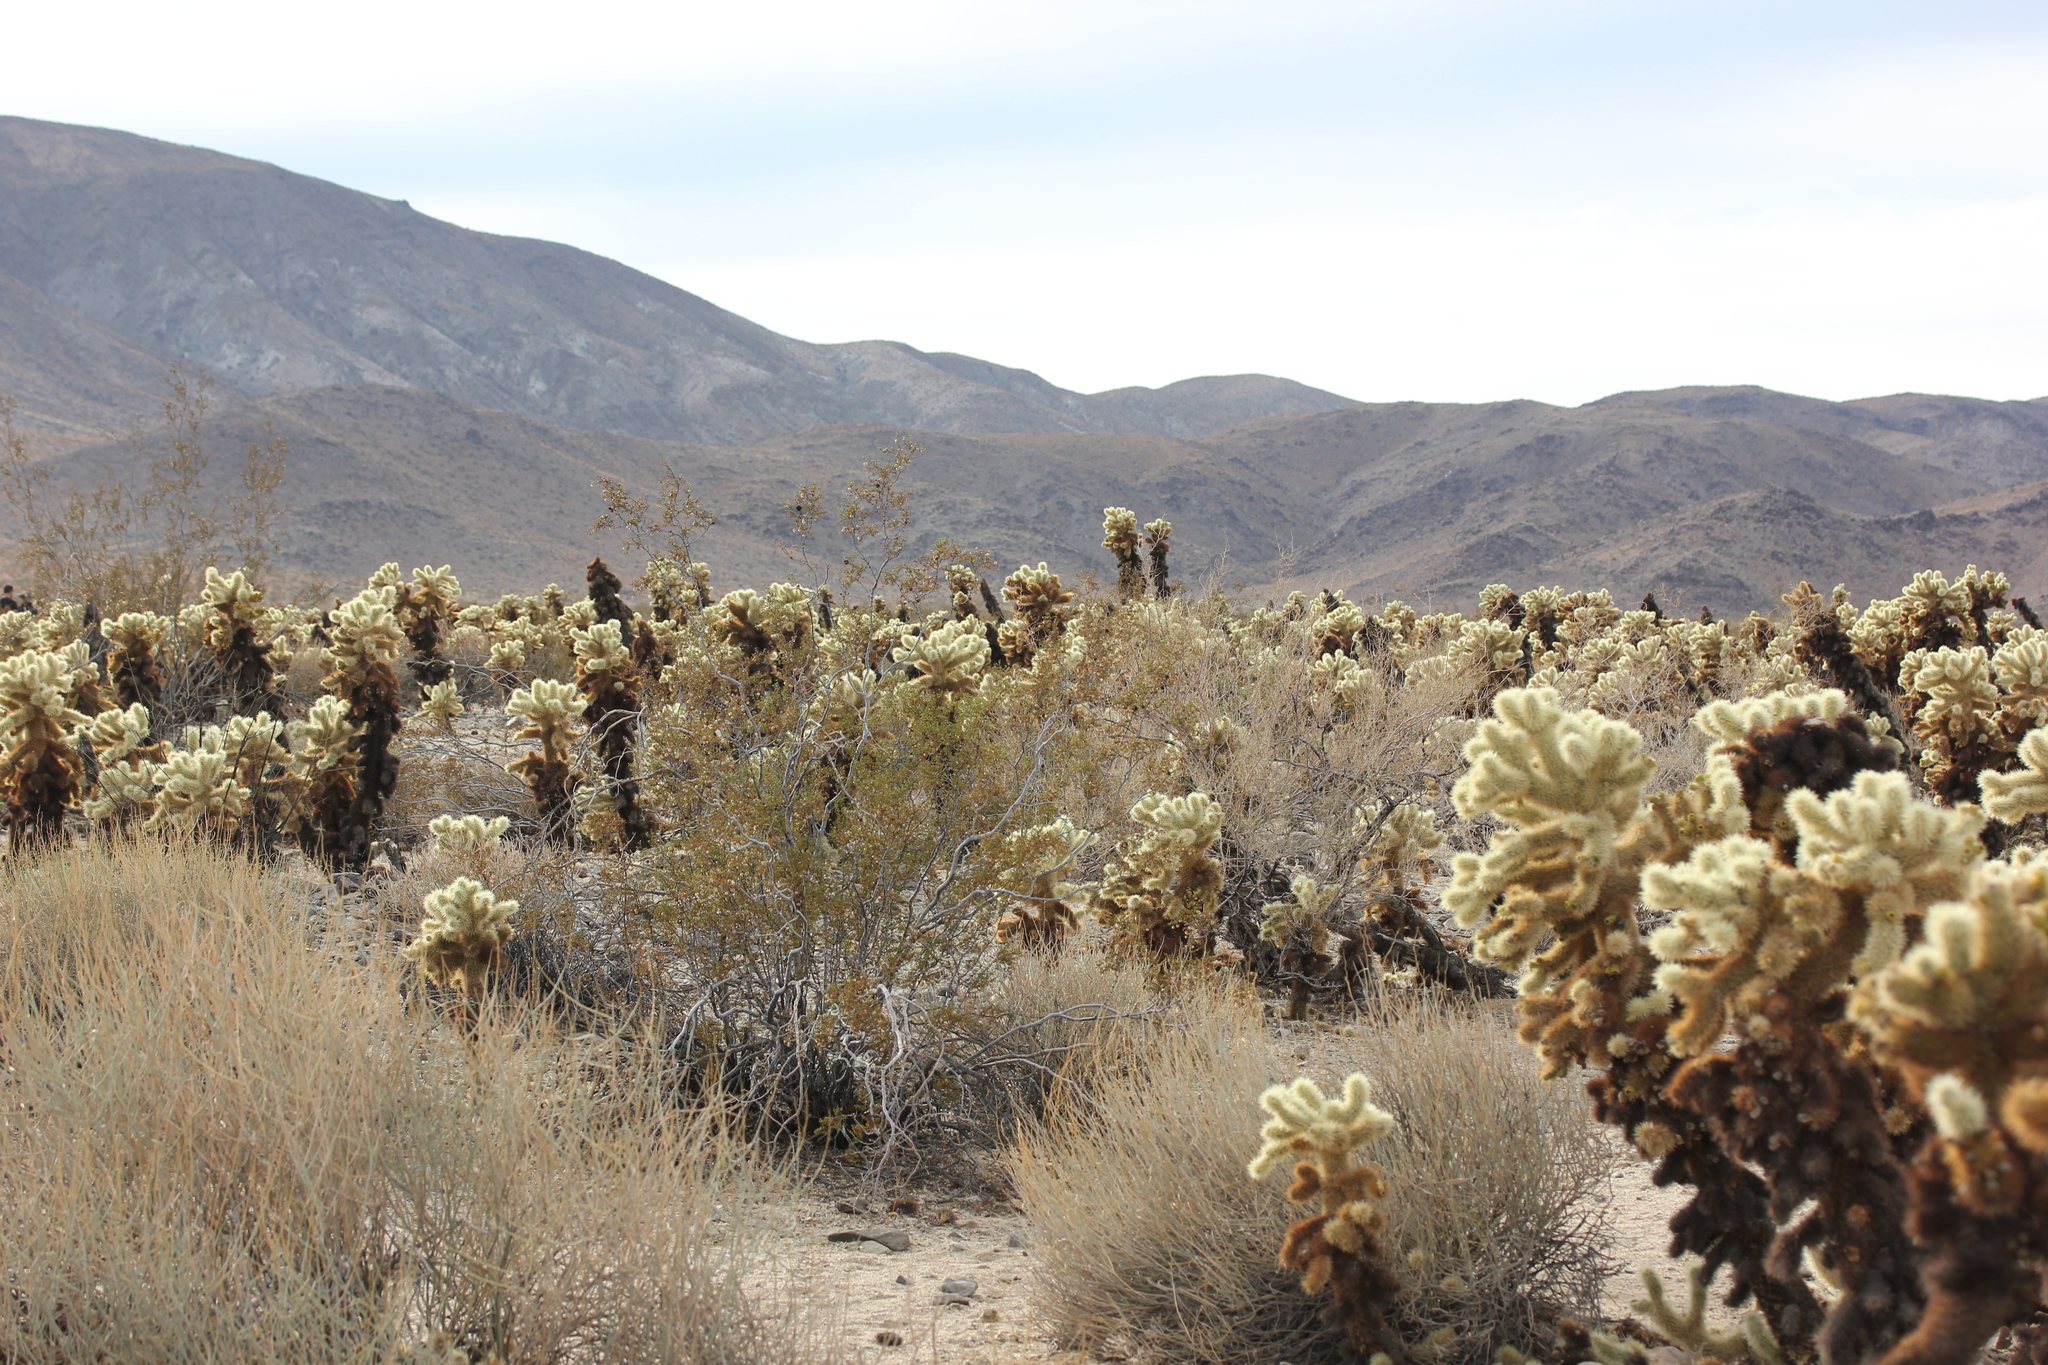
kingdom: Plantae
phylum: Tracheophyta
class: Magnoliopsida
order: Caryophyllales
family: Cactaceae
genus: Cylindropuntia
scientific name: Cylindropuntia fosbergii
